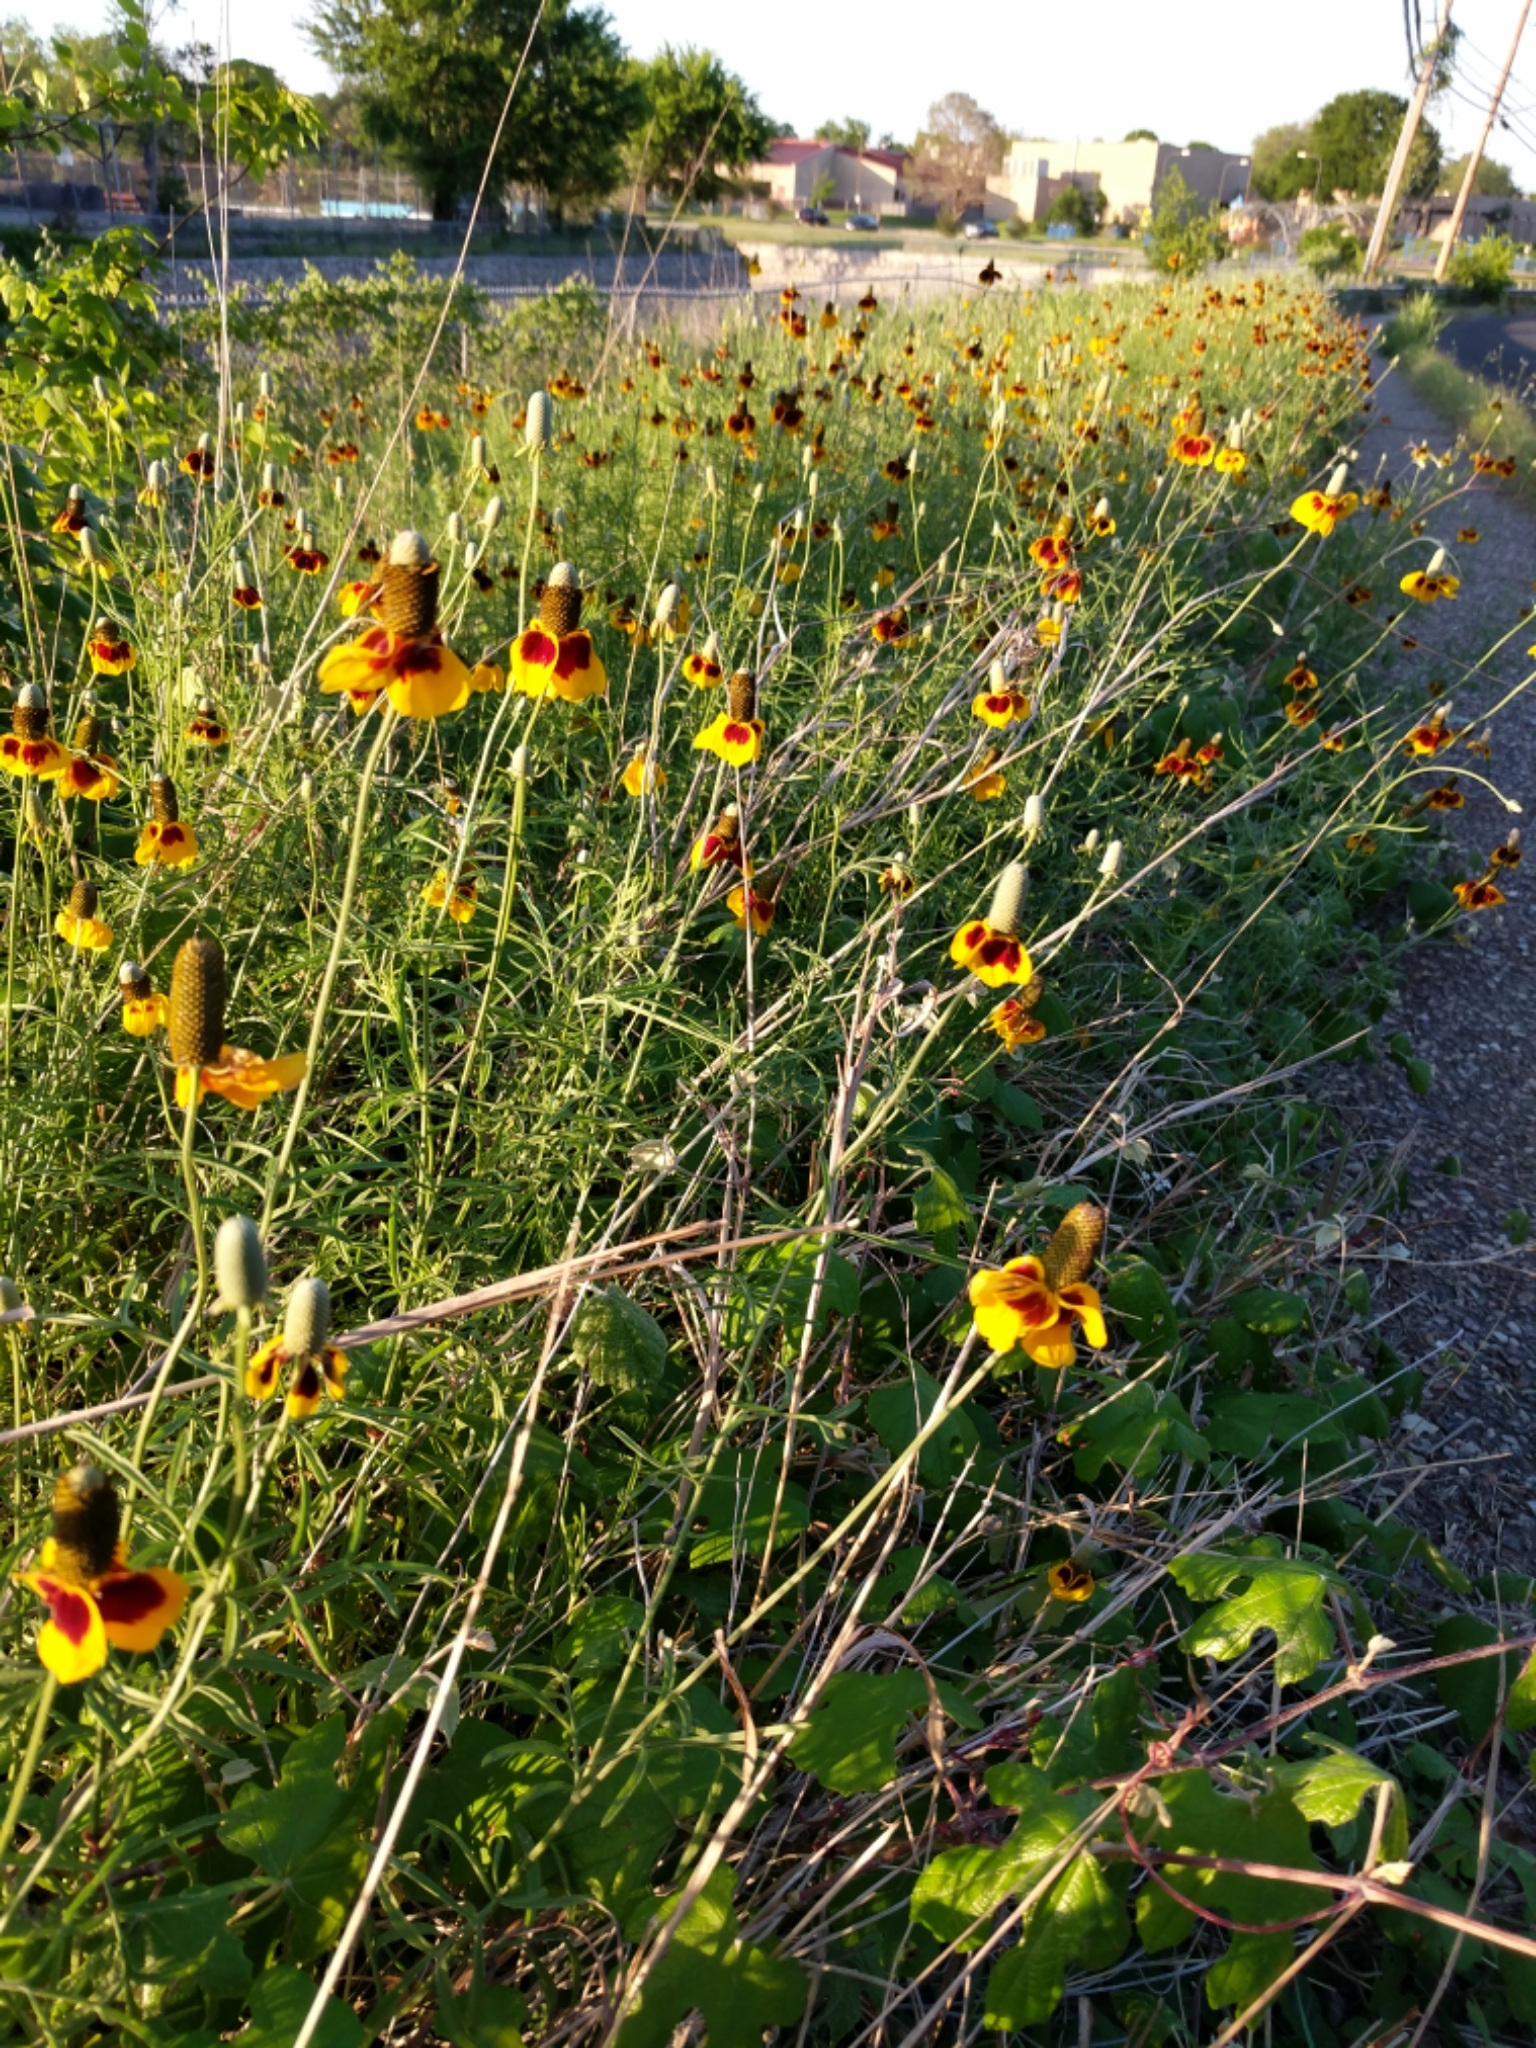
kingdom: Plantae
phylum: Tracheophyta
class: Magnoliopsida
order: Asterales
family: Asteraceae
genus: Ratibida
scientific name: Ratibida columnifera
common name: Prairie coneflower
